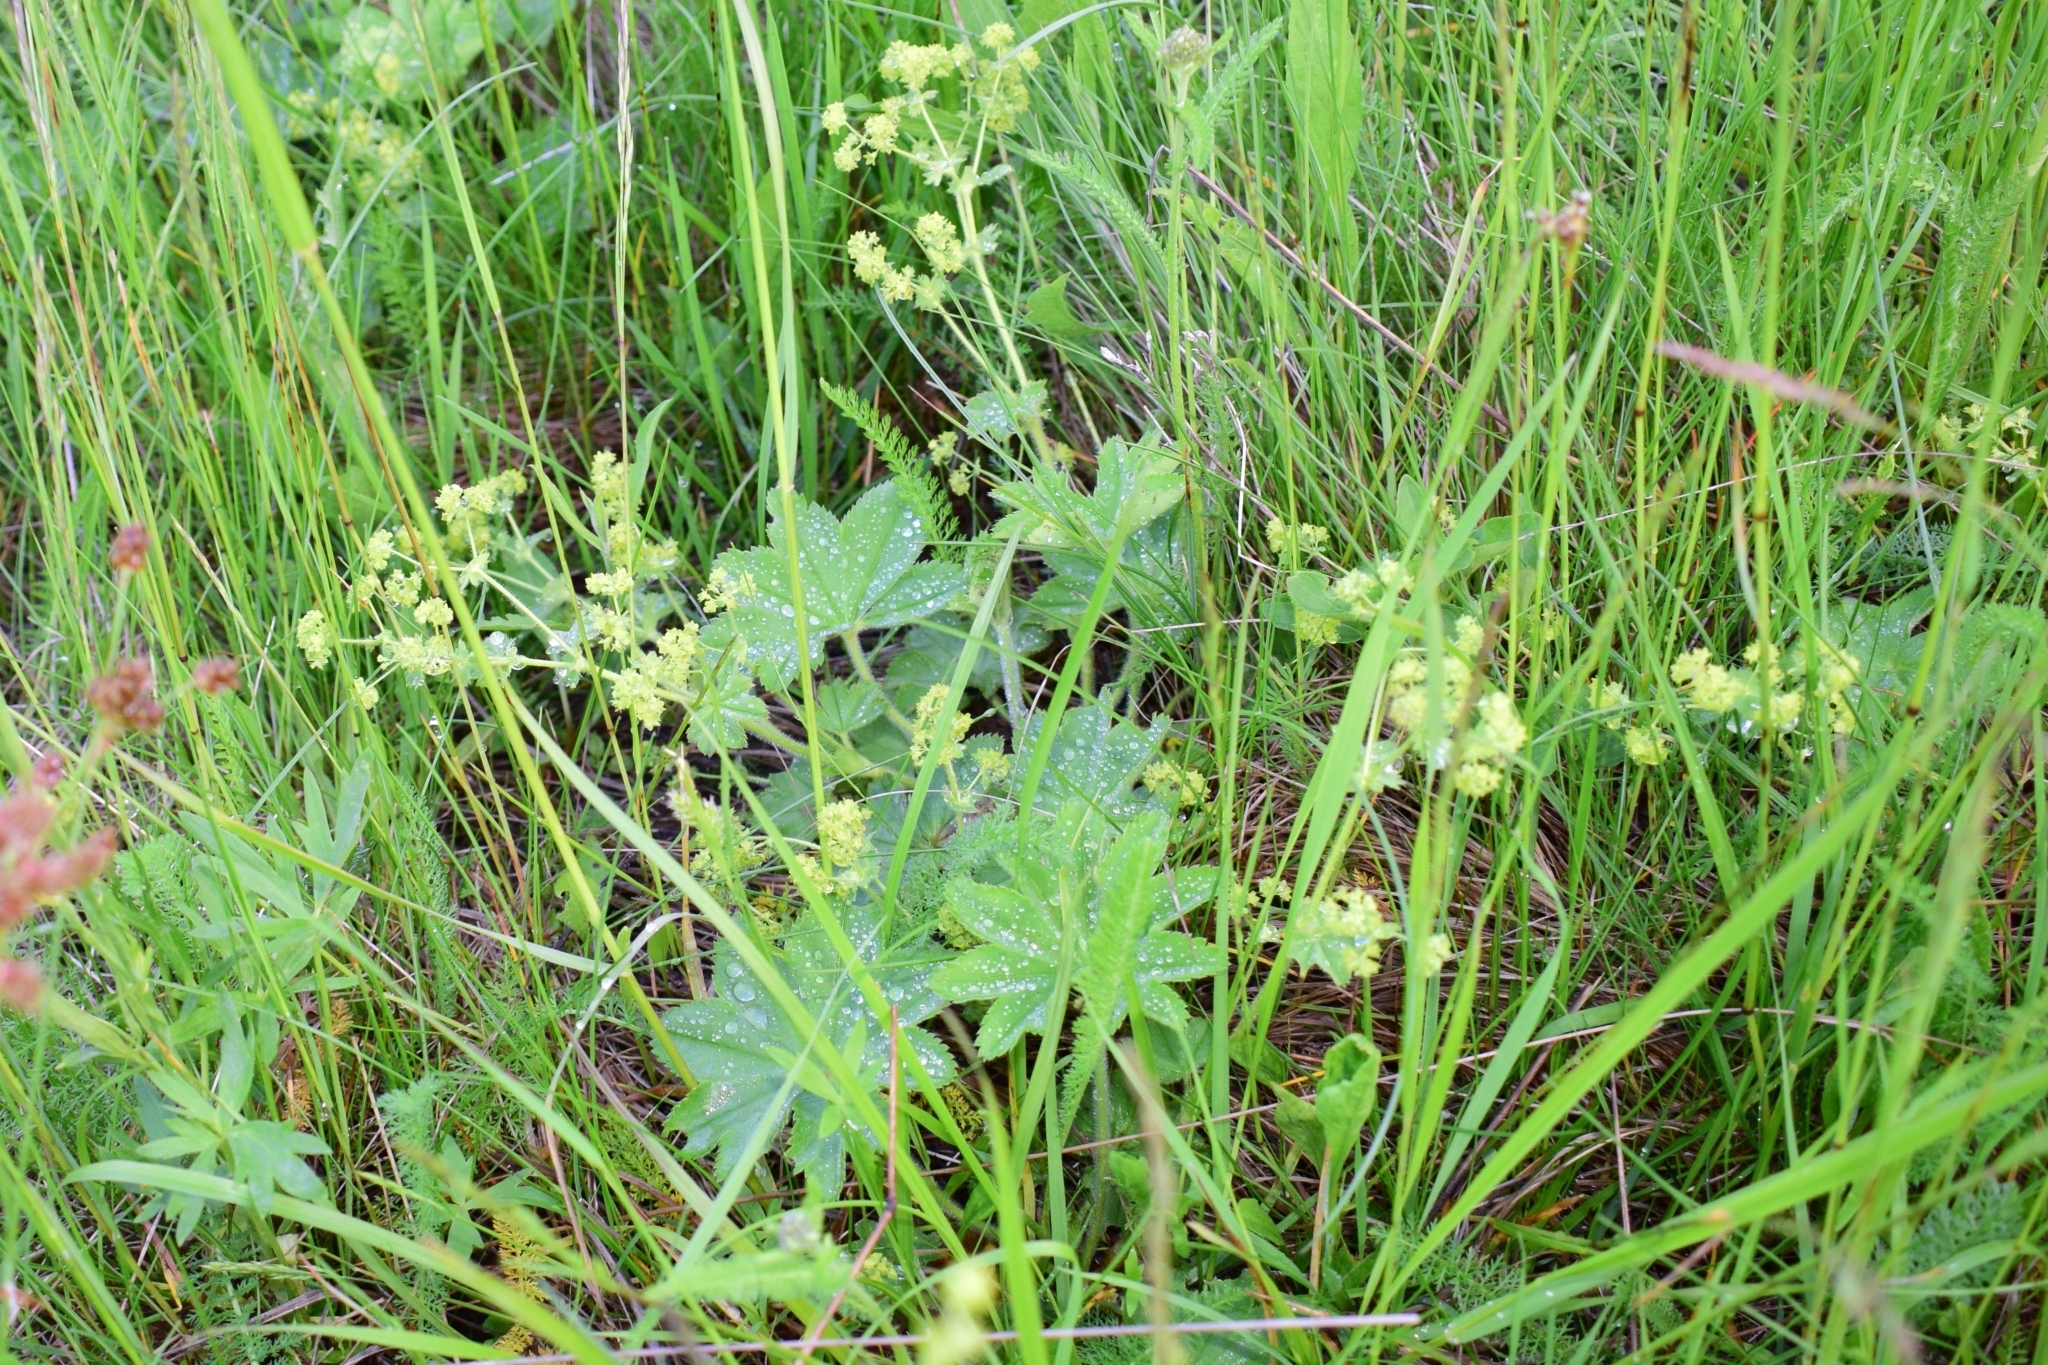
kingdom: Plantae
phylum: Tracheophyta
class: Magnoliopsida
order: Rosales
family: Rosaceae
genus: Alchemilla
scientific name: Alchemilla argutiserrata
